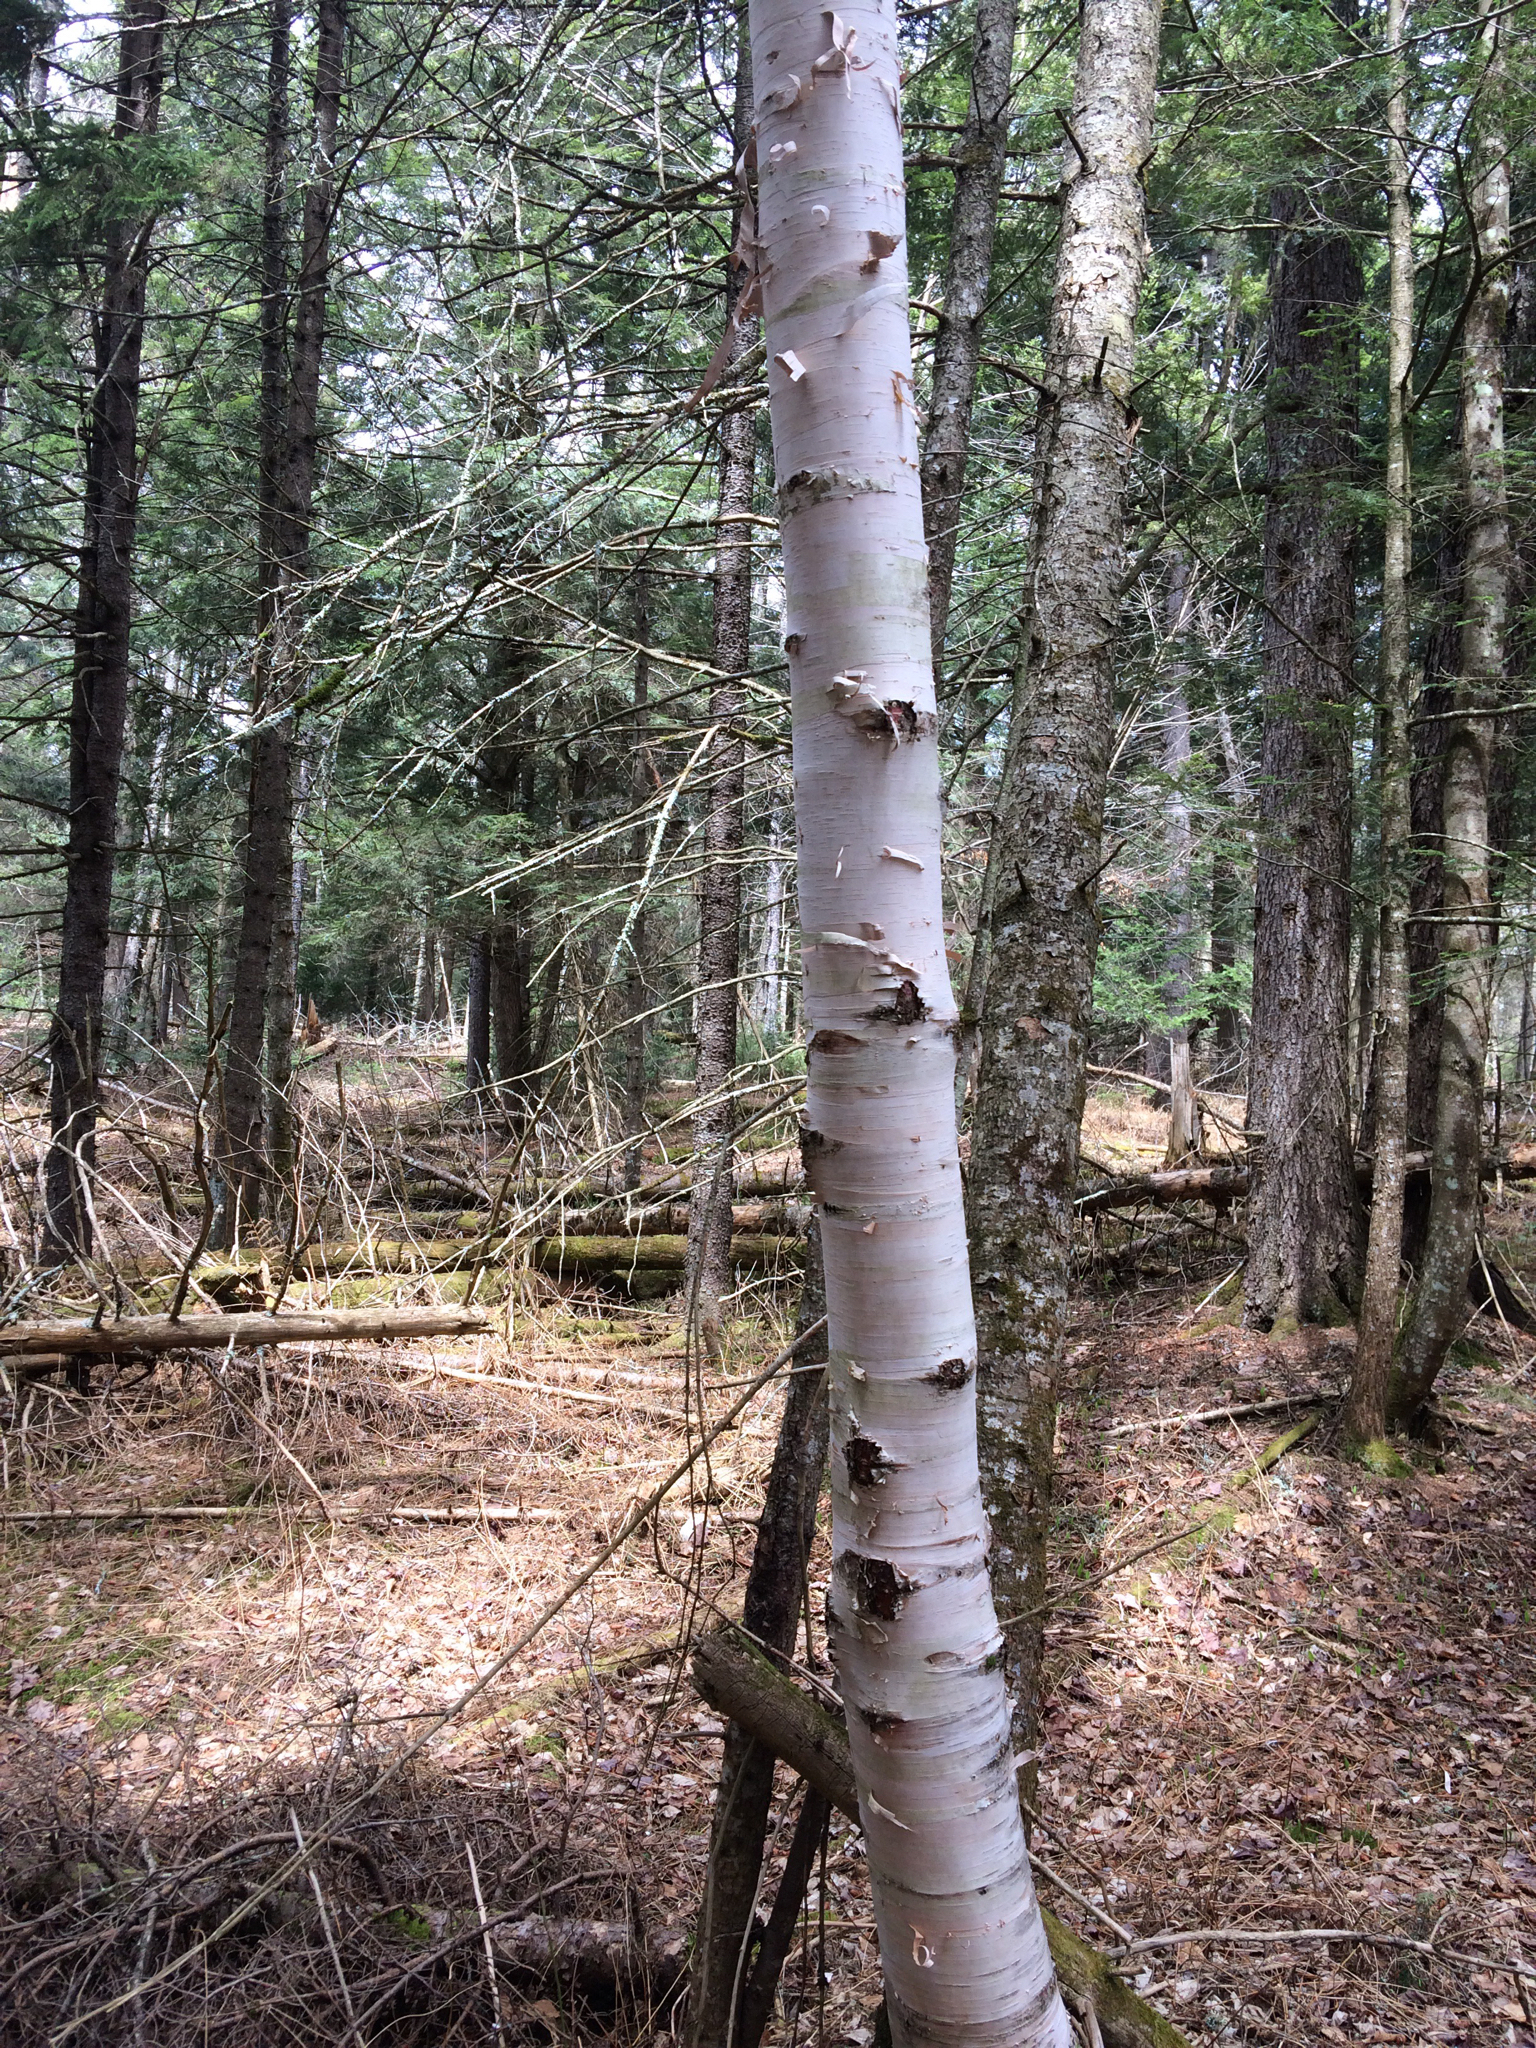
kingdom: Plantae
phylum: Tracheophyta
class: Magnoliopsida
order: Fagales
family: Betulaceae
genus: Betula
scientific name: Betula papyrifera
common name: Paper birch
